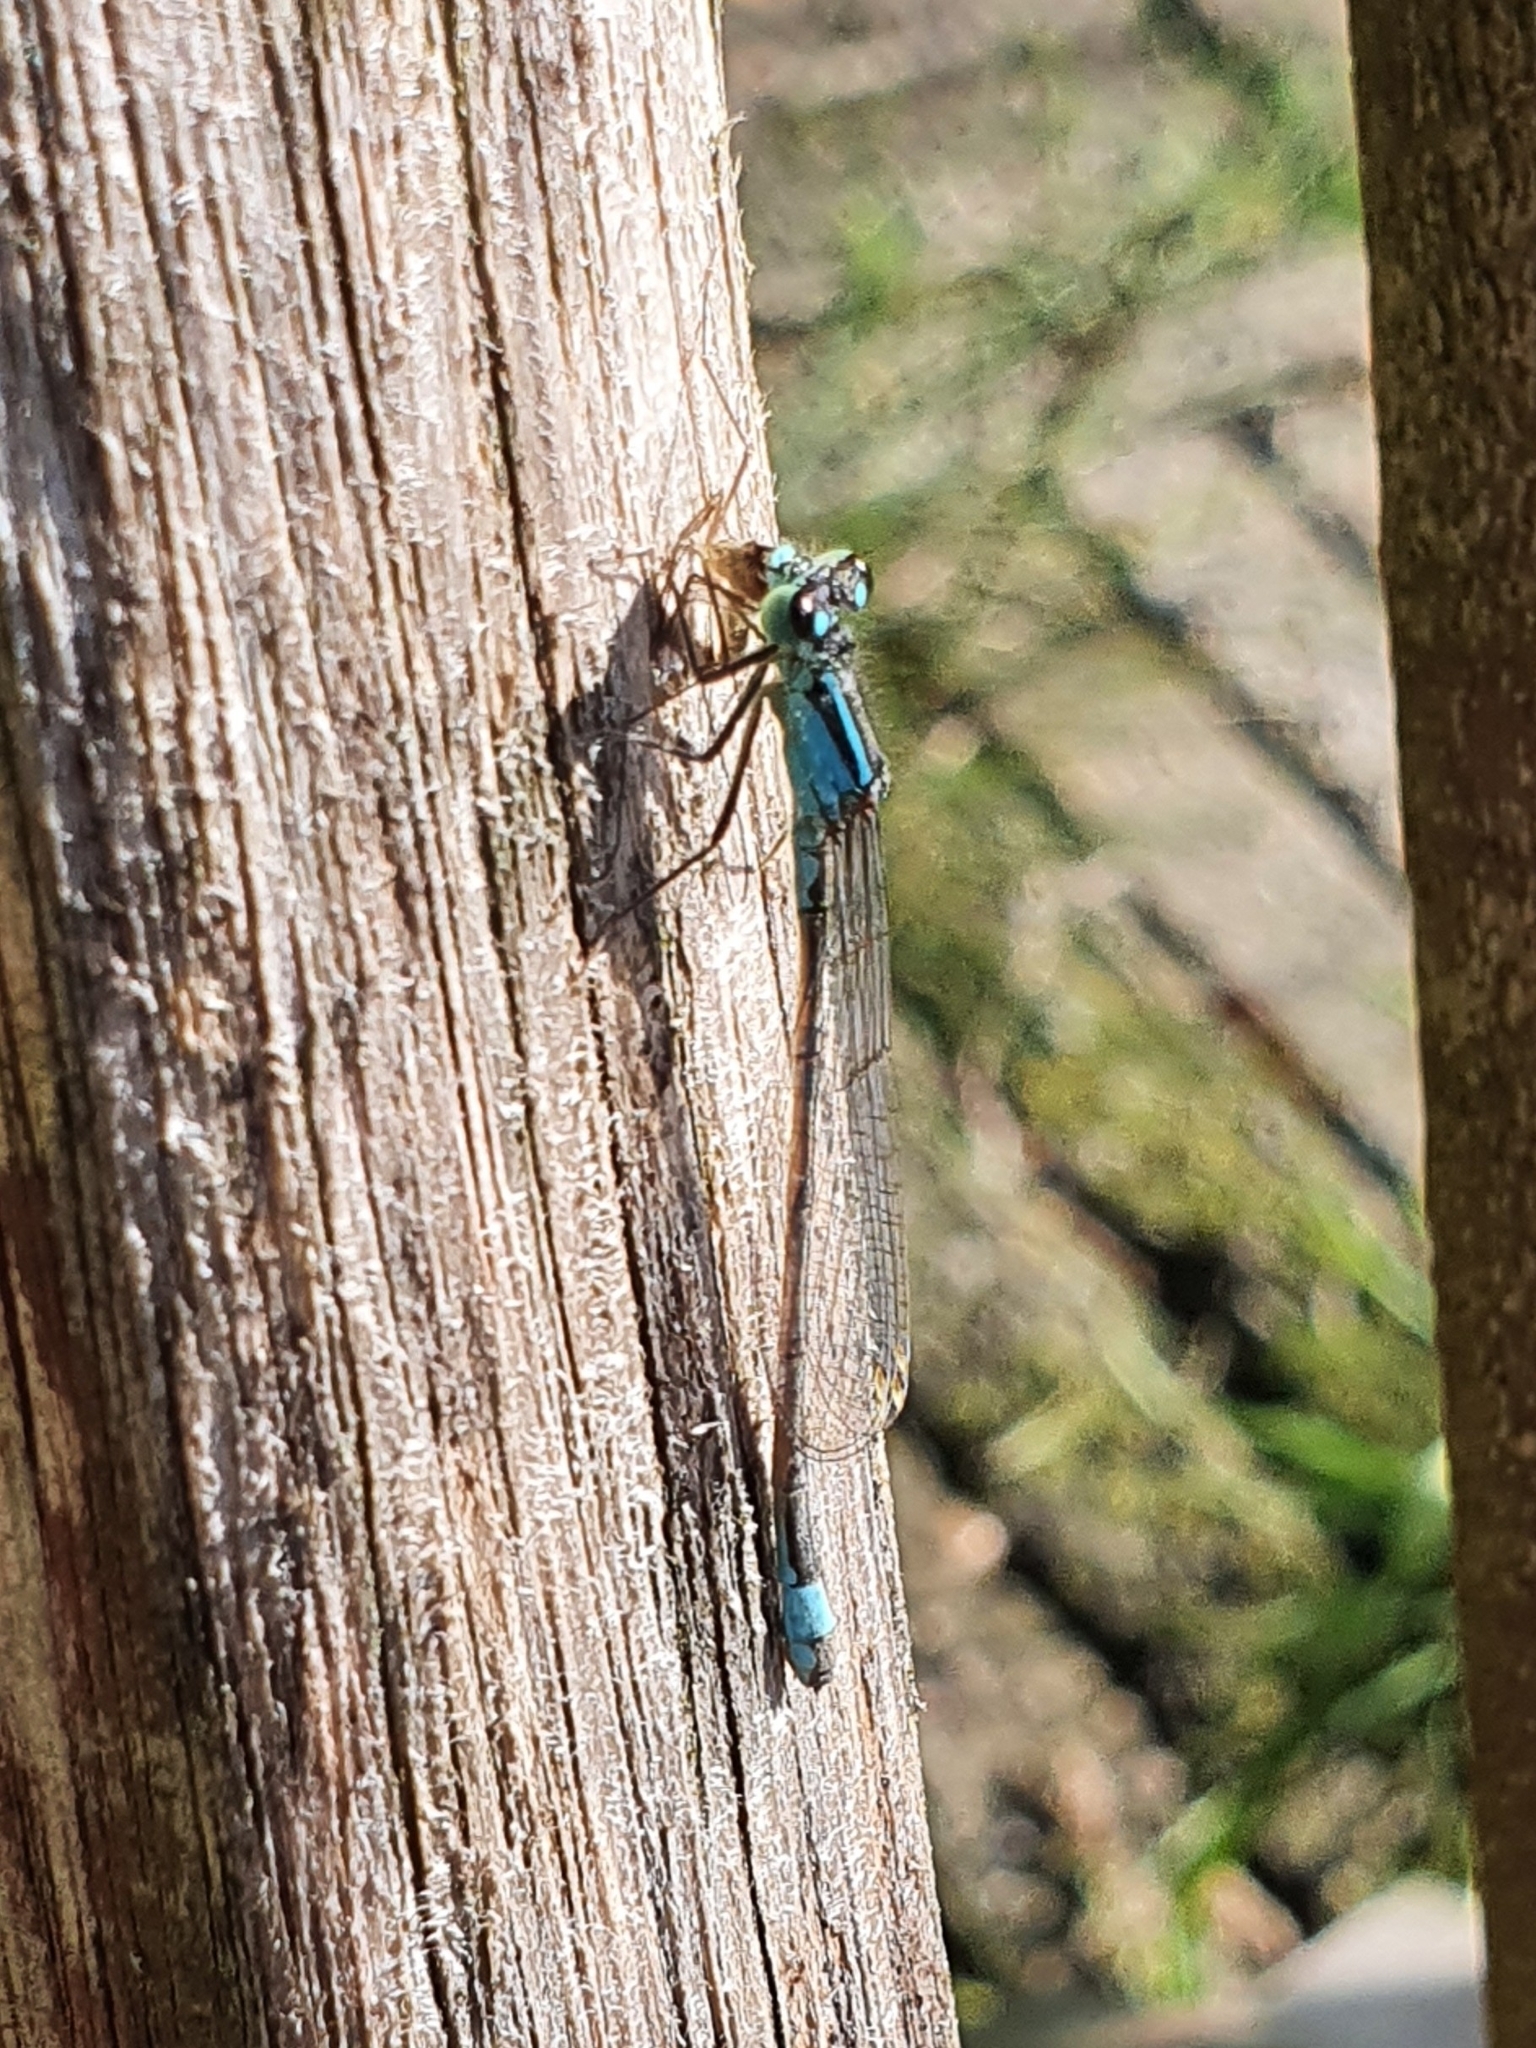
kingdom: Animalia
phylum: Arthropoda
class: Insecta
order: Odonata
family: Coenagrionidae
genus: Ischnura
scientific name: Ischnura elegans
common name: Blue-tailed damselfly
